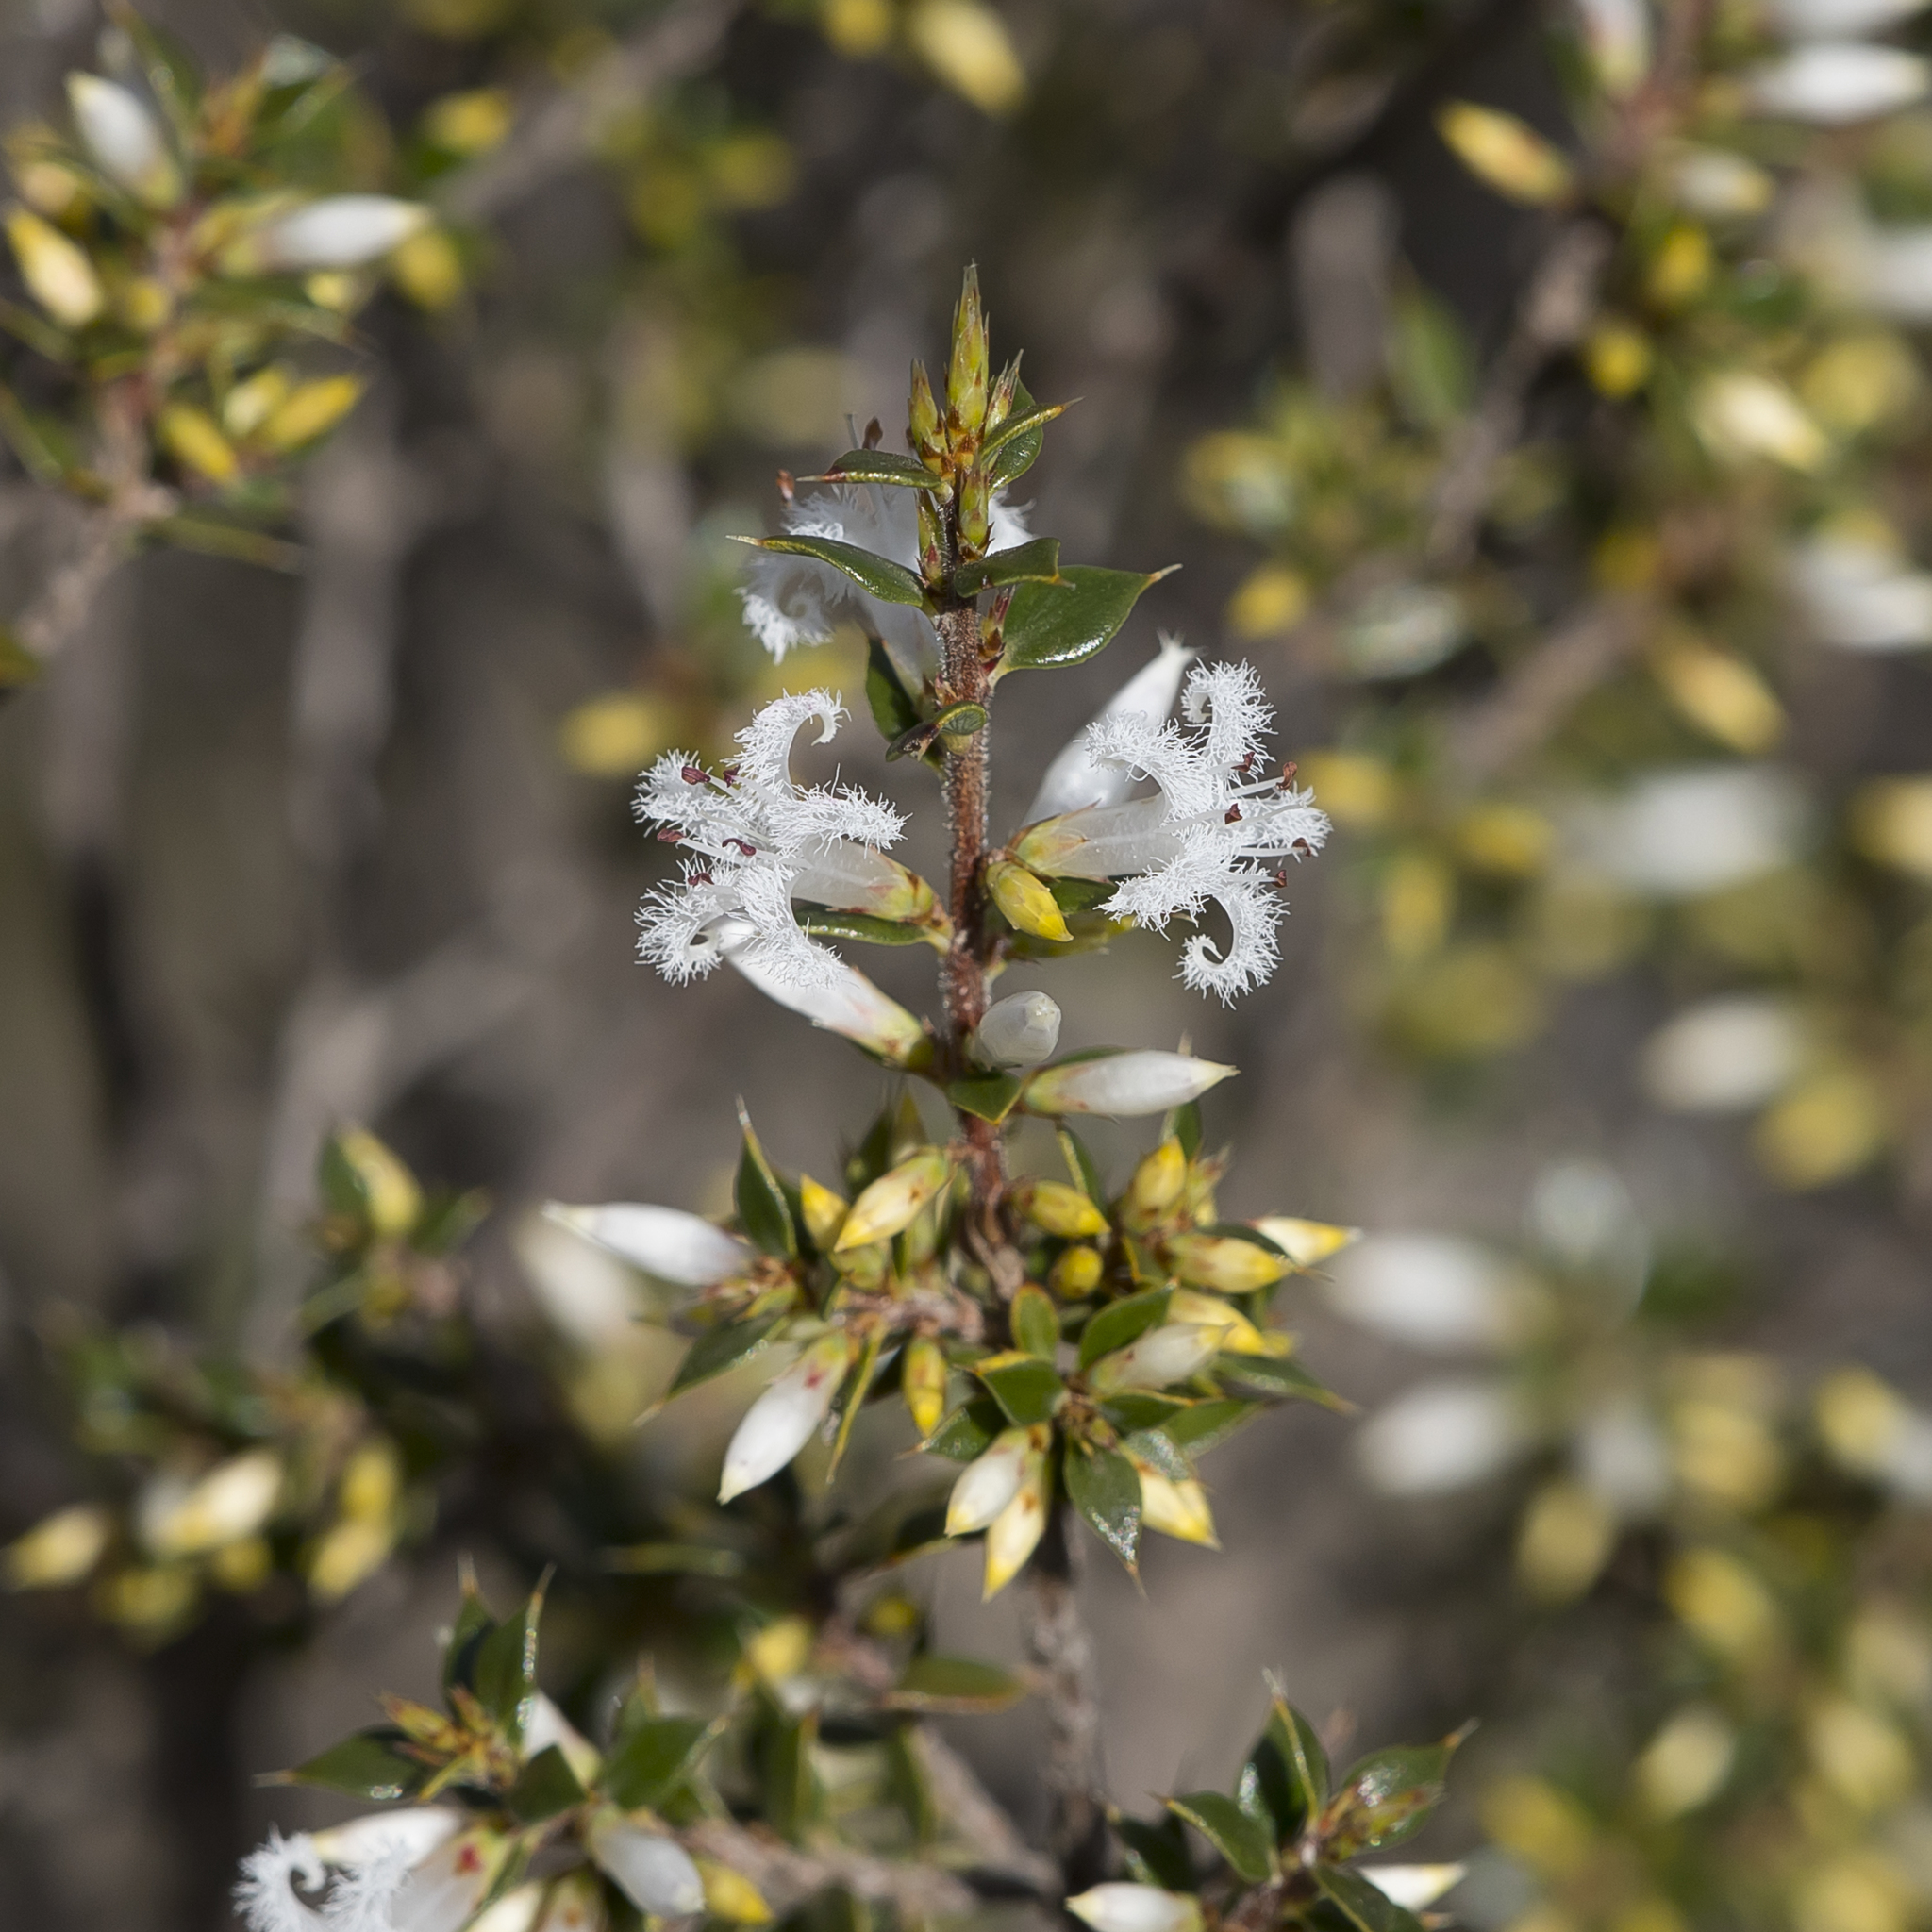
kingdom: Plantae
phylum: Tracheophyta
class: Magnoliopsida
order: Ericales
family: Ericaceae
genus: Styphelia
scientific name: Styphelia exarrhena
